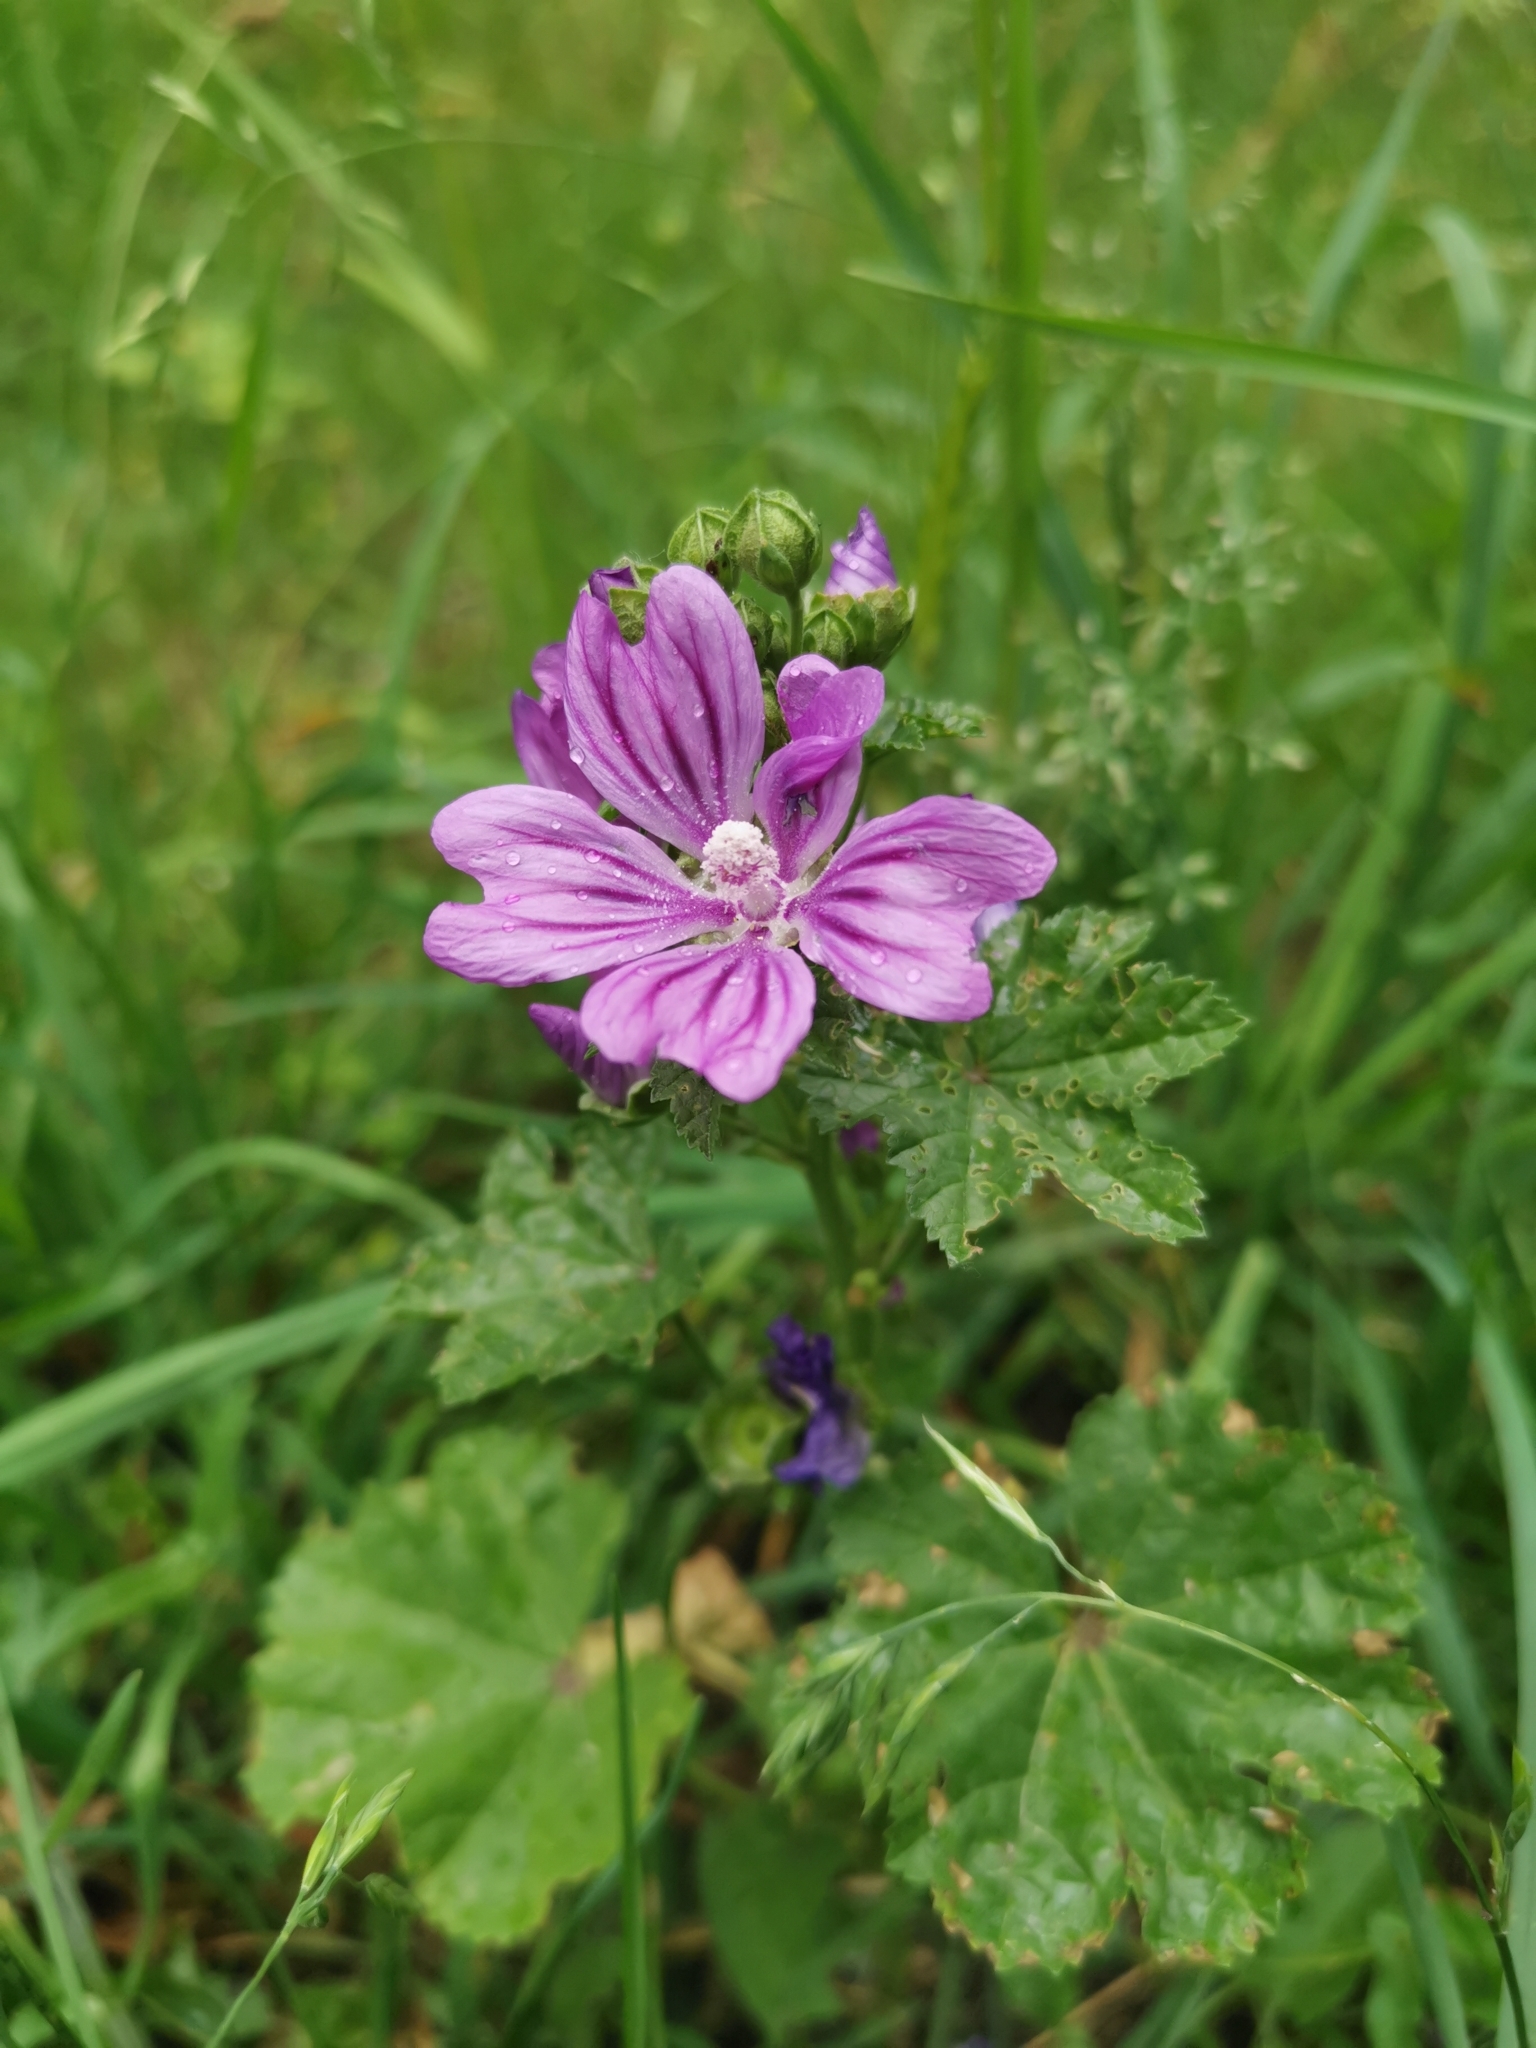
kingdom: Plantae
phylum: Tracheophyta
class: Magnoliopsida
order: Malvales
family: Malvaceae
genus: Malva
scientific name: Malva sylvestris
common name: Common mallow
